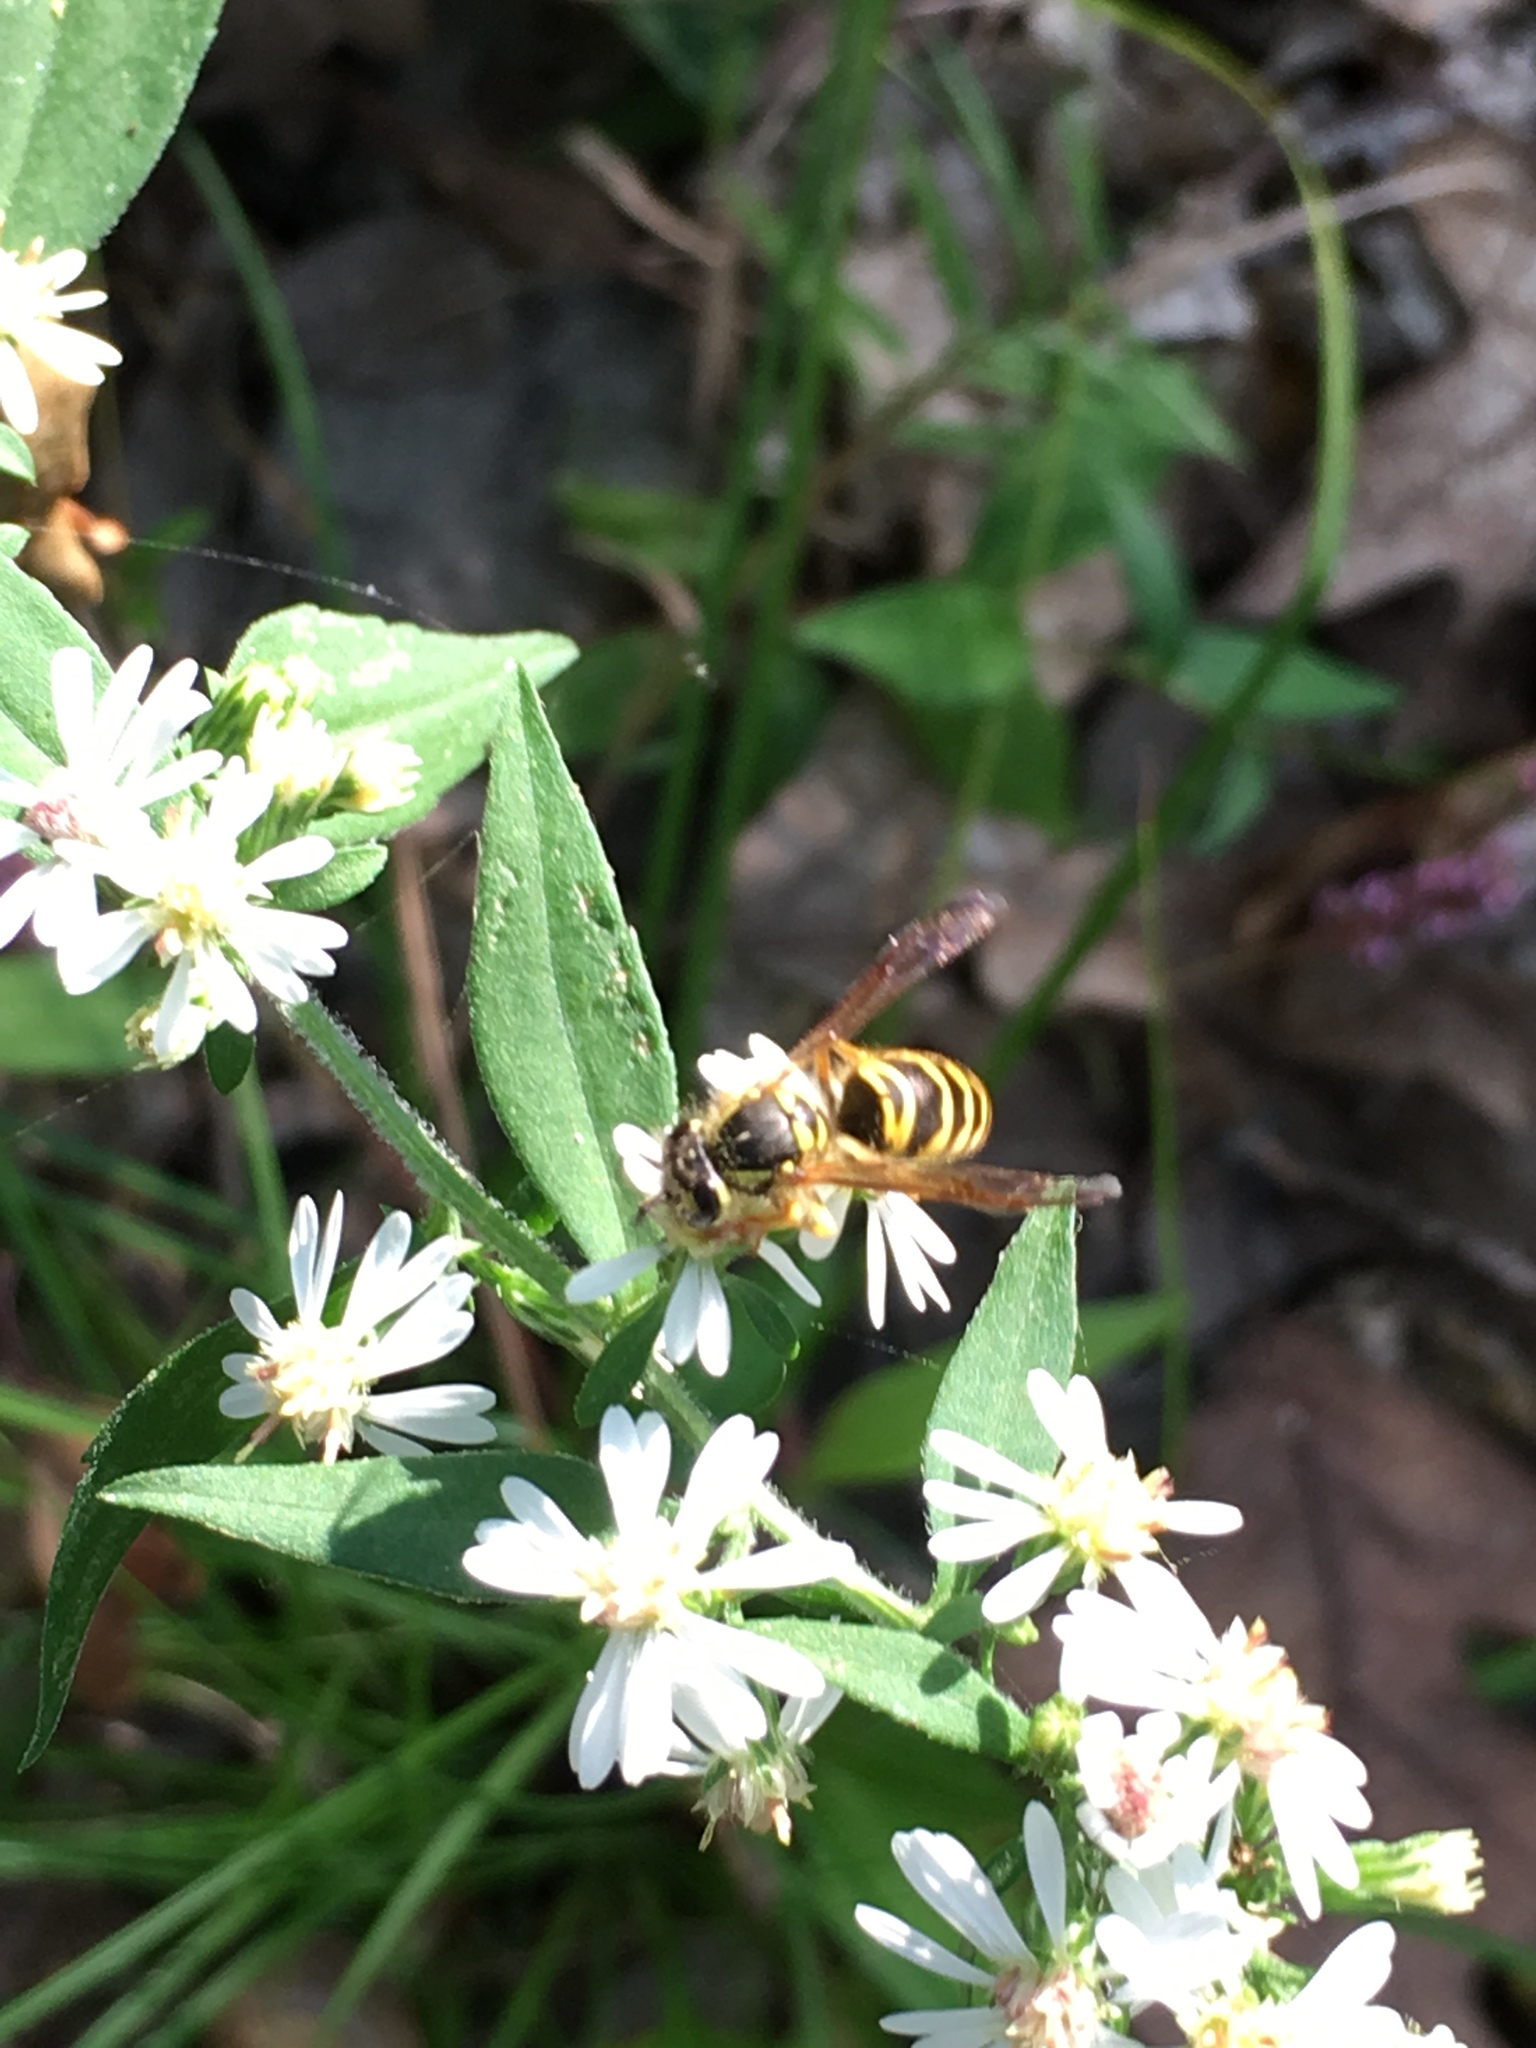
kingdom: Animalia
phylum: Arthropoda
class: Insecta
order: Hymenoptera
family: Vespidae
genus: Vespula
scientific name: Vespula maculifrons
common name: Eastern yellowjacket
